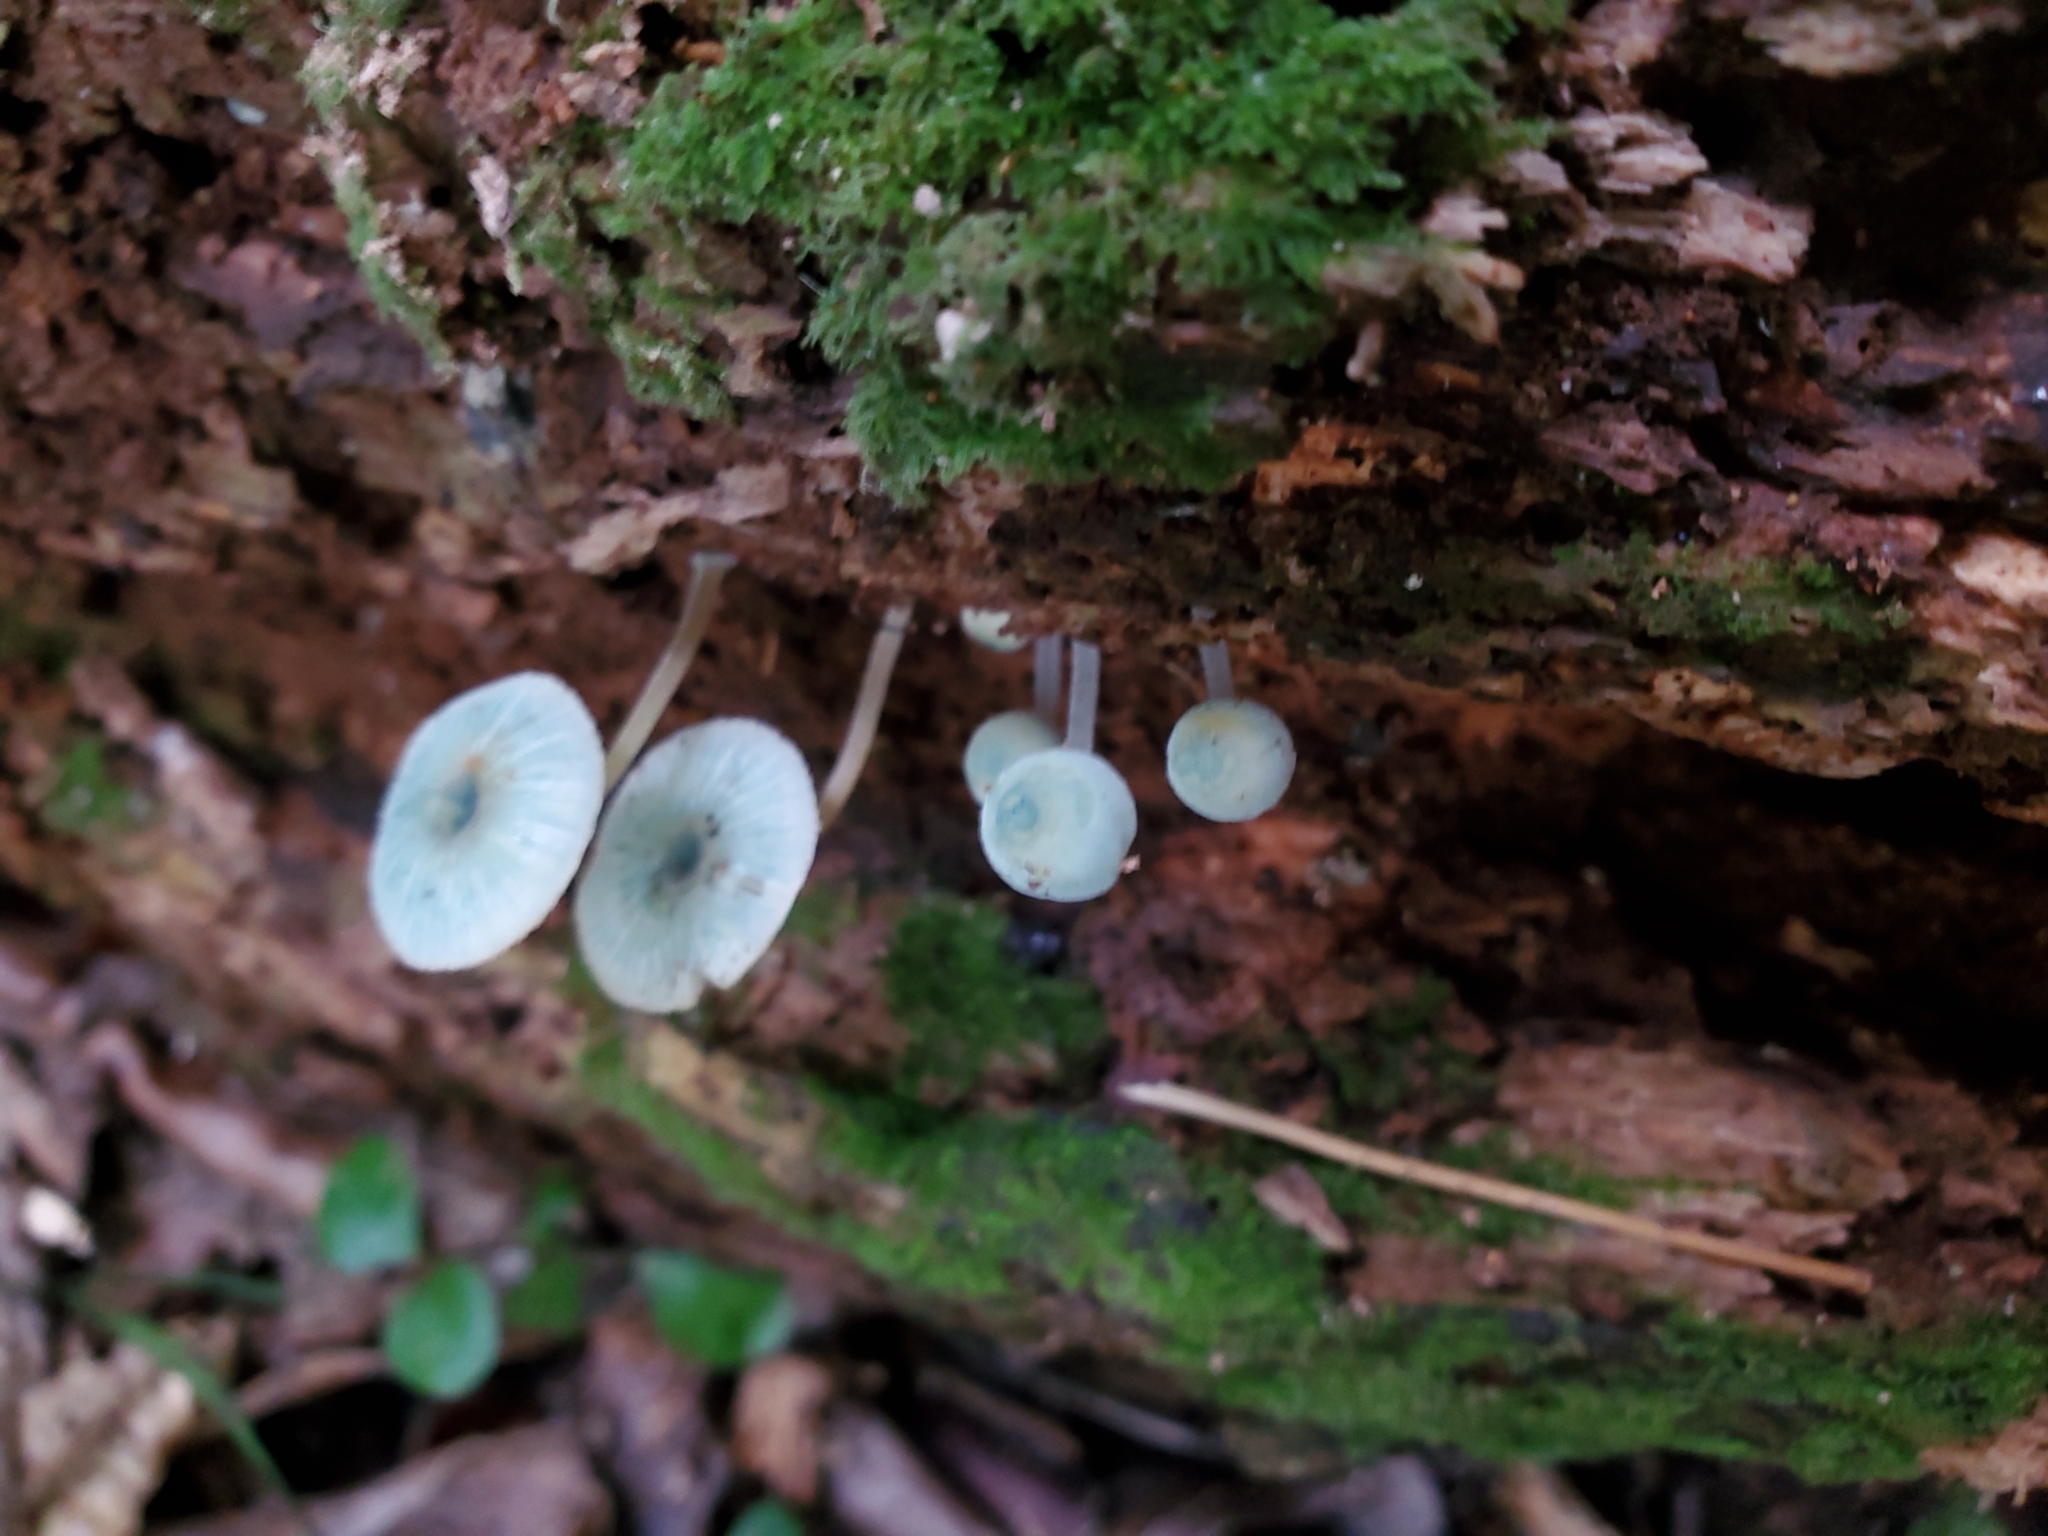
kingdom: Fungi
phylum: Basidiomycota
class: Agaricomycetes
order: Agaricales
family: Mycenaceae
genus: Mycena
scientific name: Mycena interrupta
